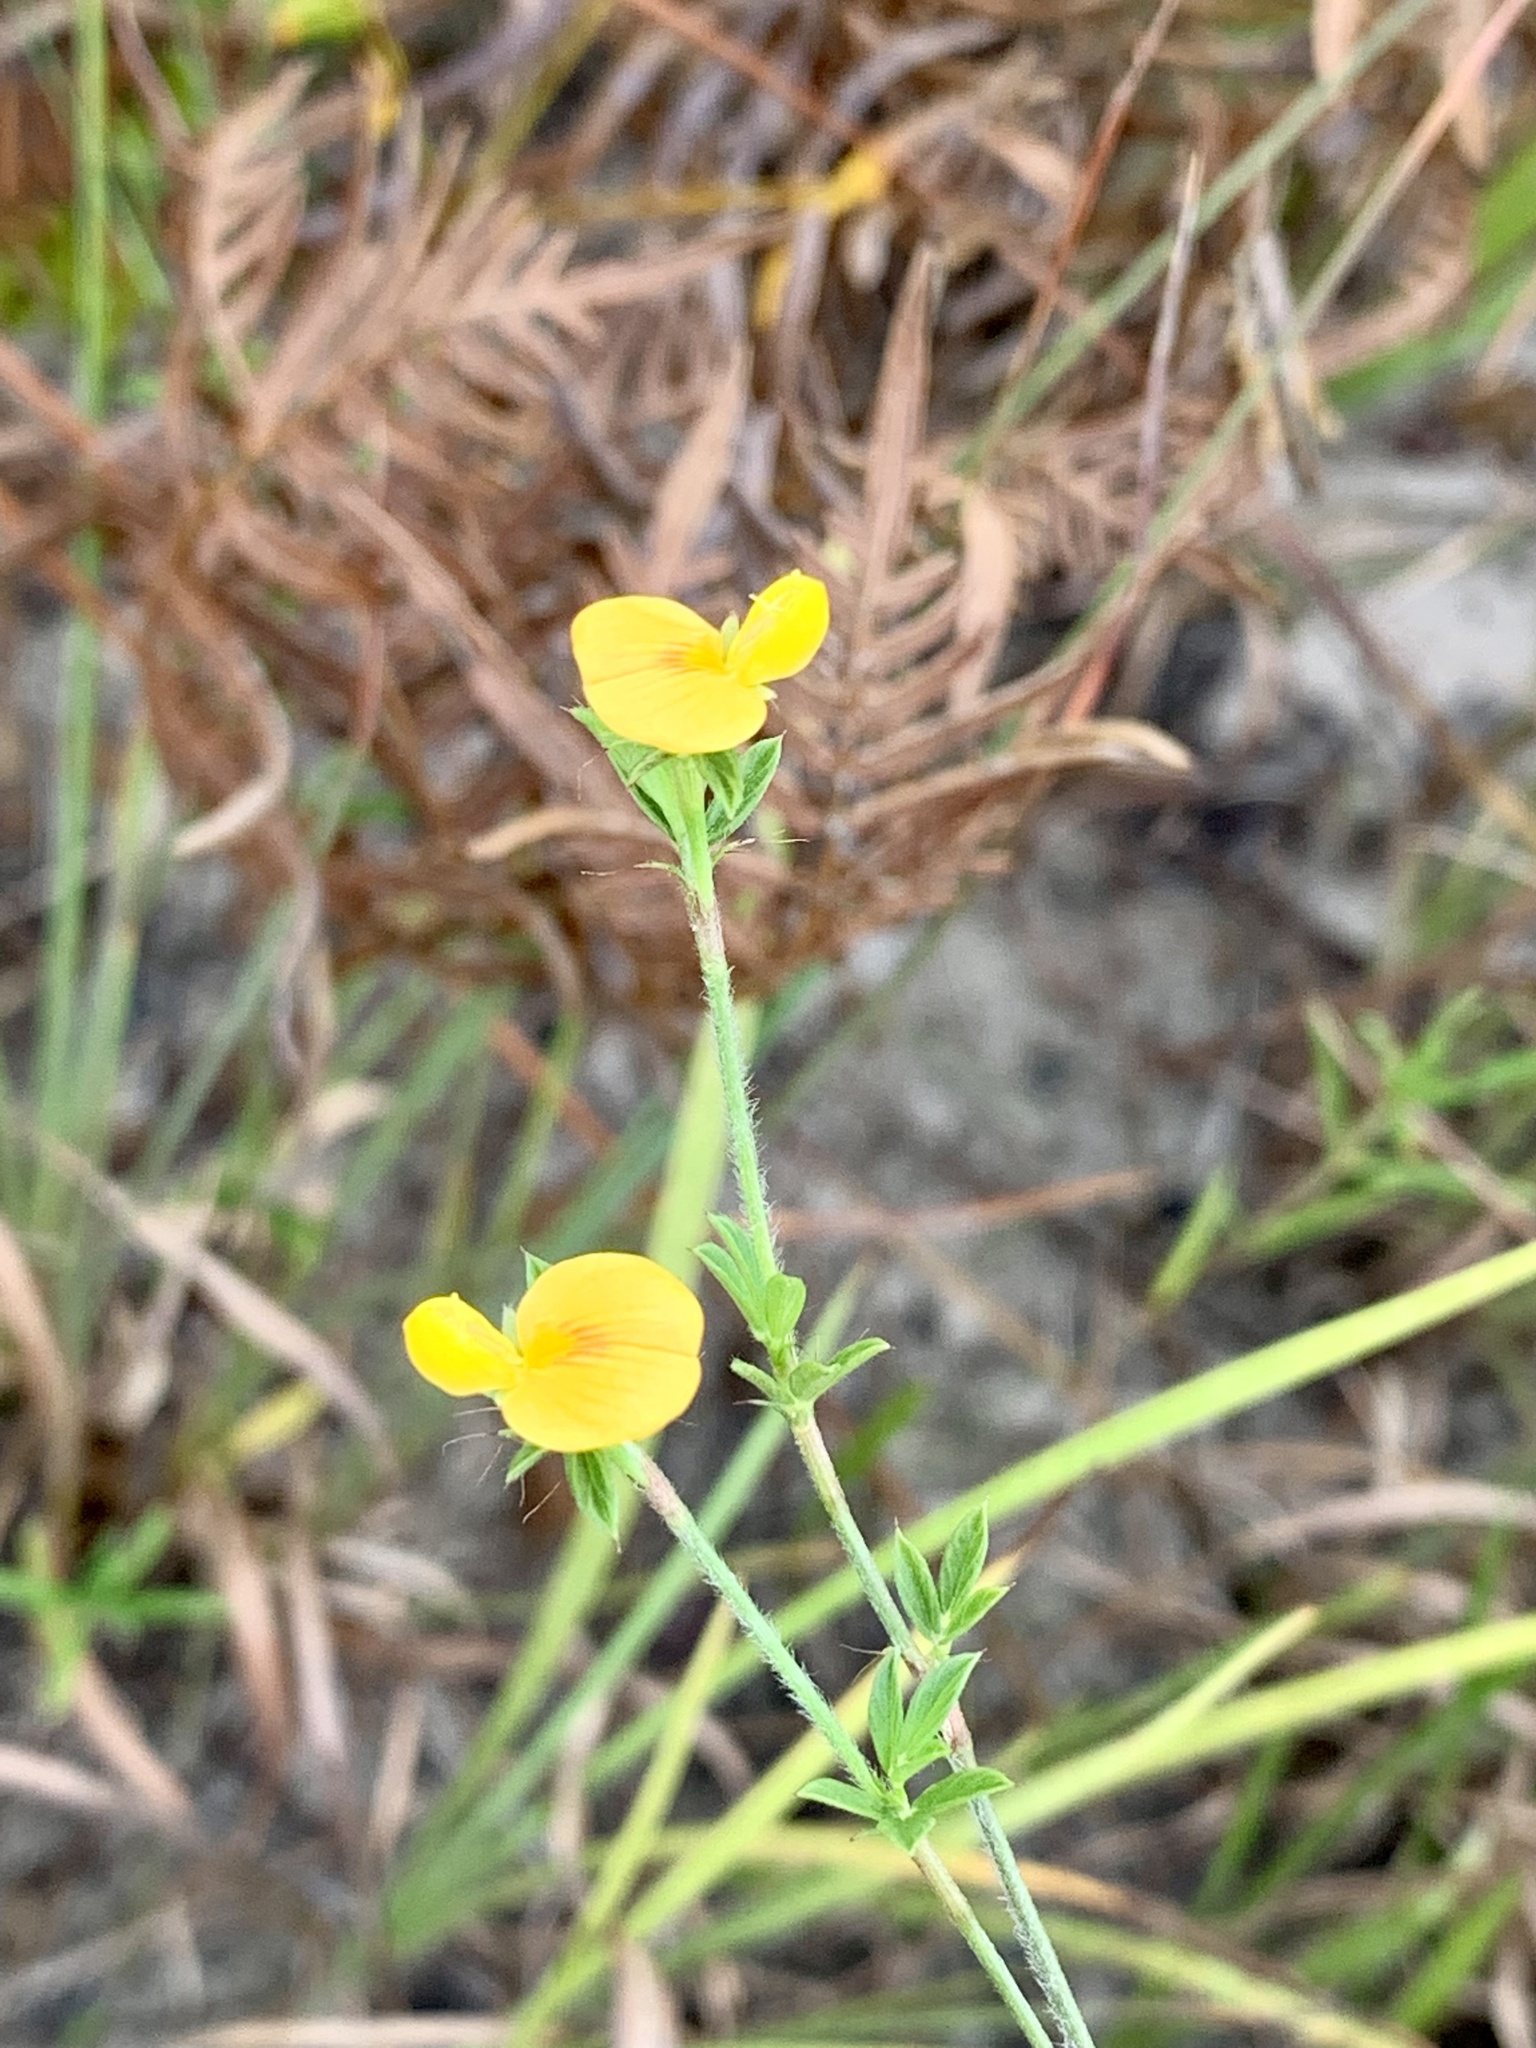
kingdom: Plantae
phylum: Tracheophyta
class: Magnoliopsida
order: Fabales
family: Fabaceae
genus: Stylosanthes
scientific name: Stylosanthes biflora
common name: Two-flower pencil-flower
